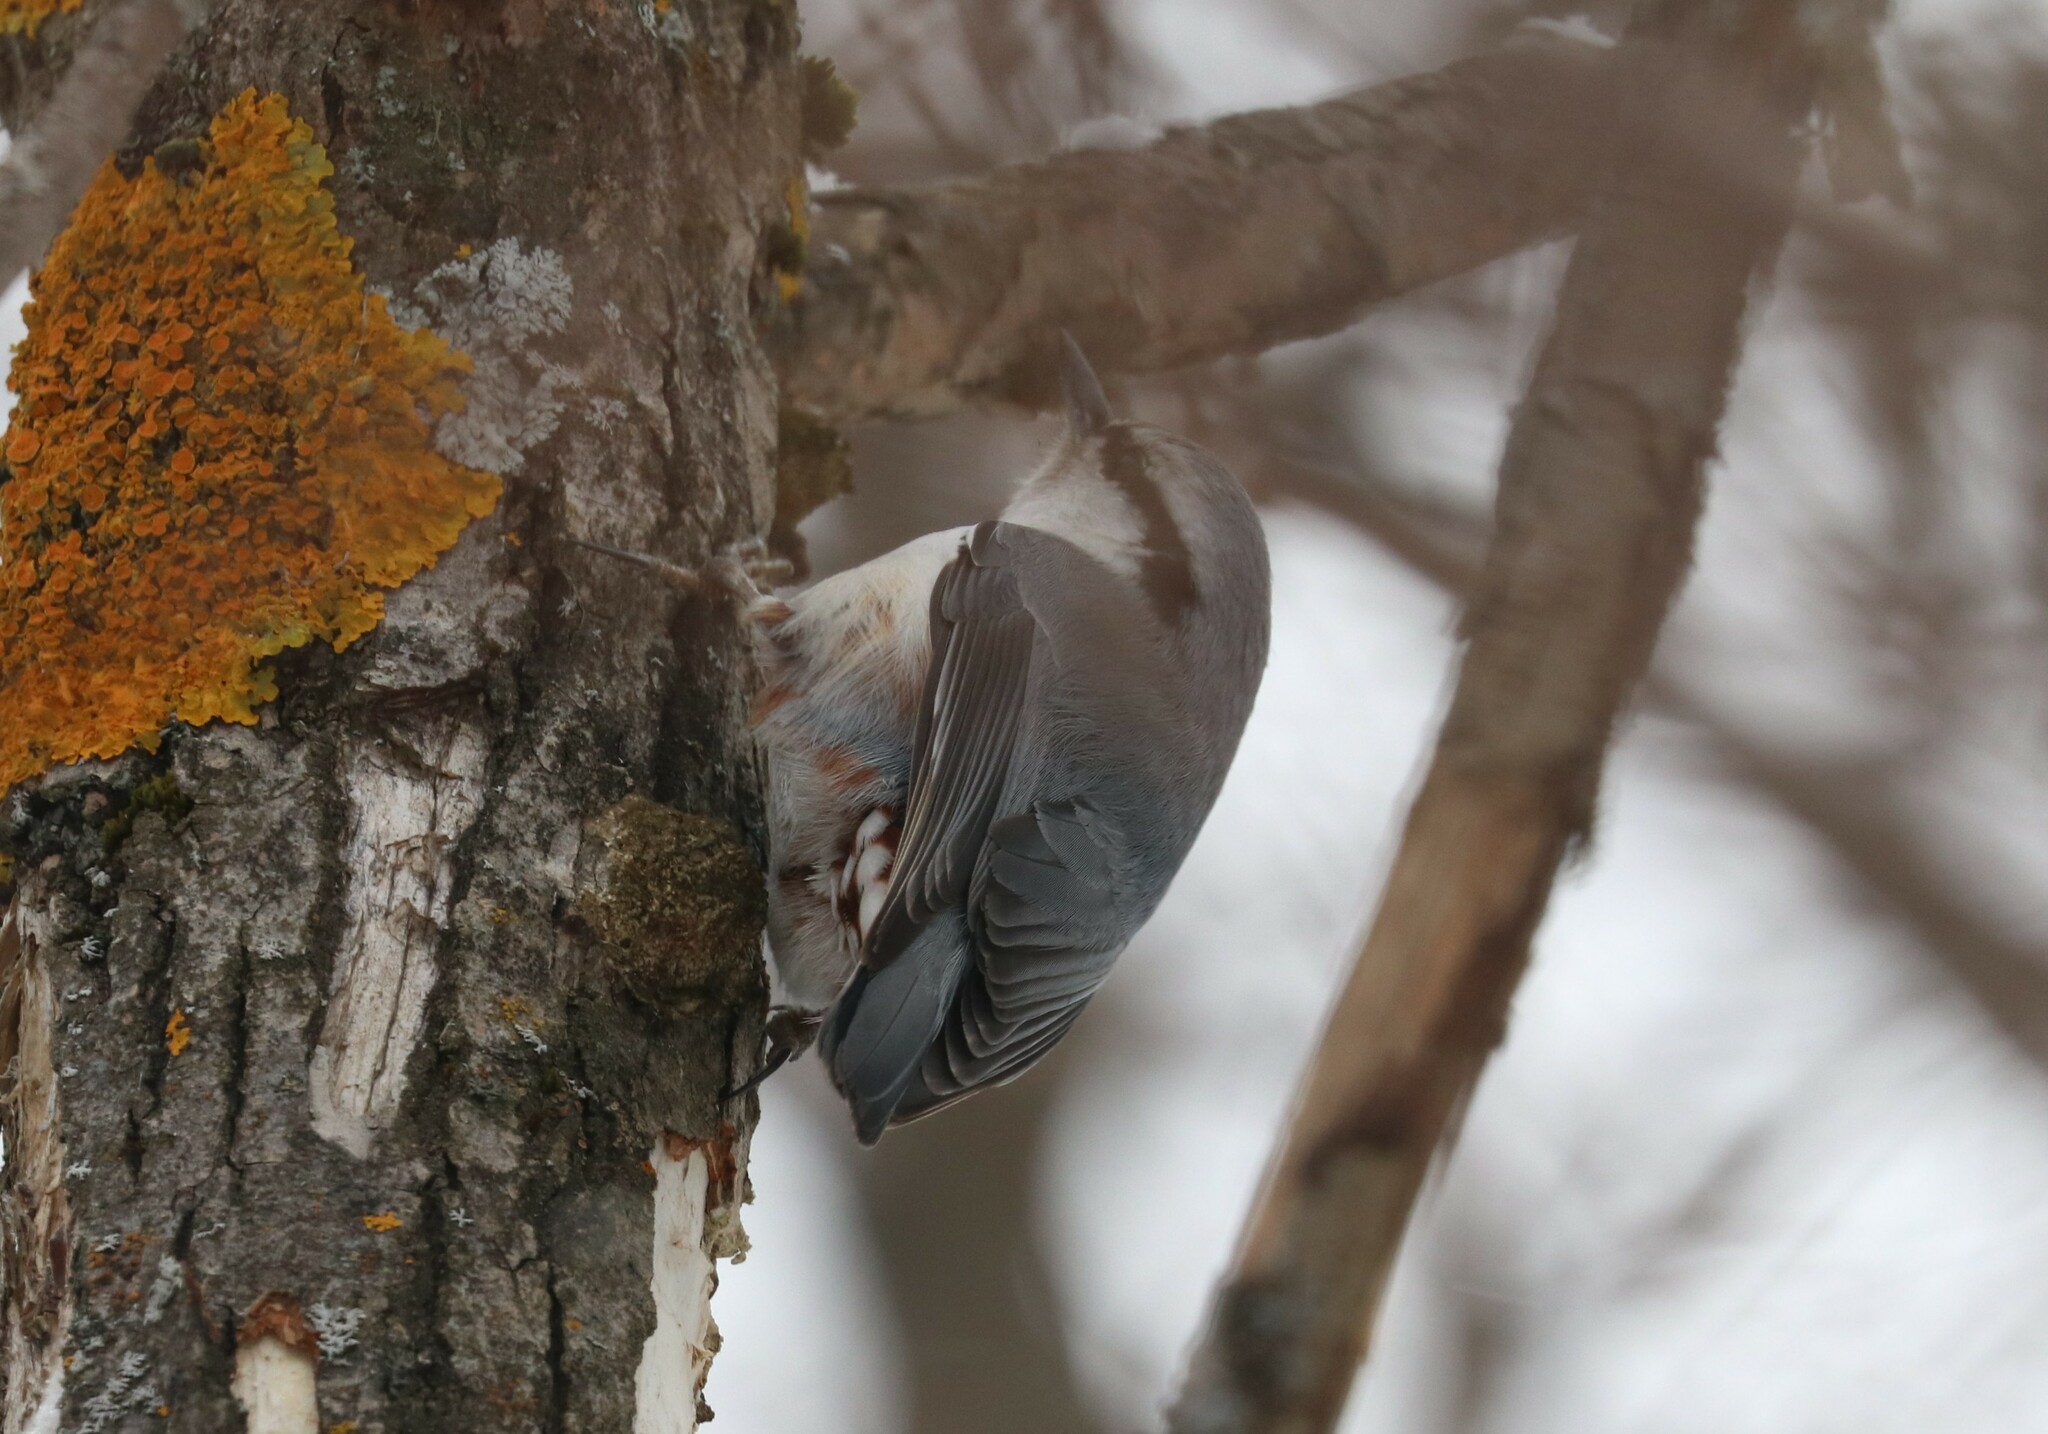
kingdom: Animalia
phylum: Chordata
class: Aves
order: Passeriformes
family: Sittidae
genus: Sitta
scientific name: Sitta europaea
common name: Eurasian nuthatch
